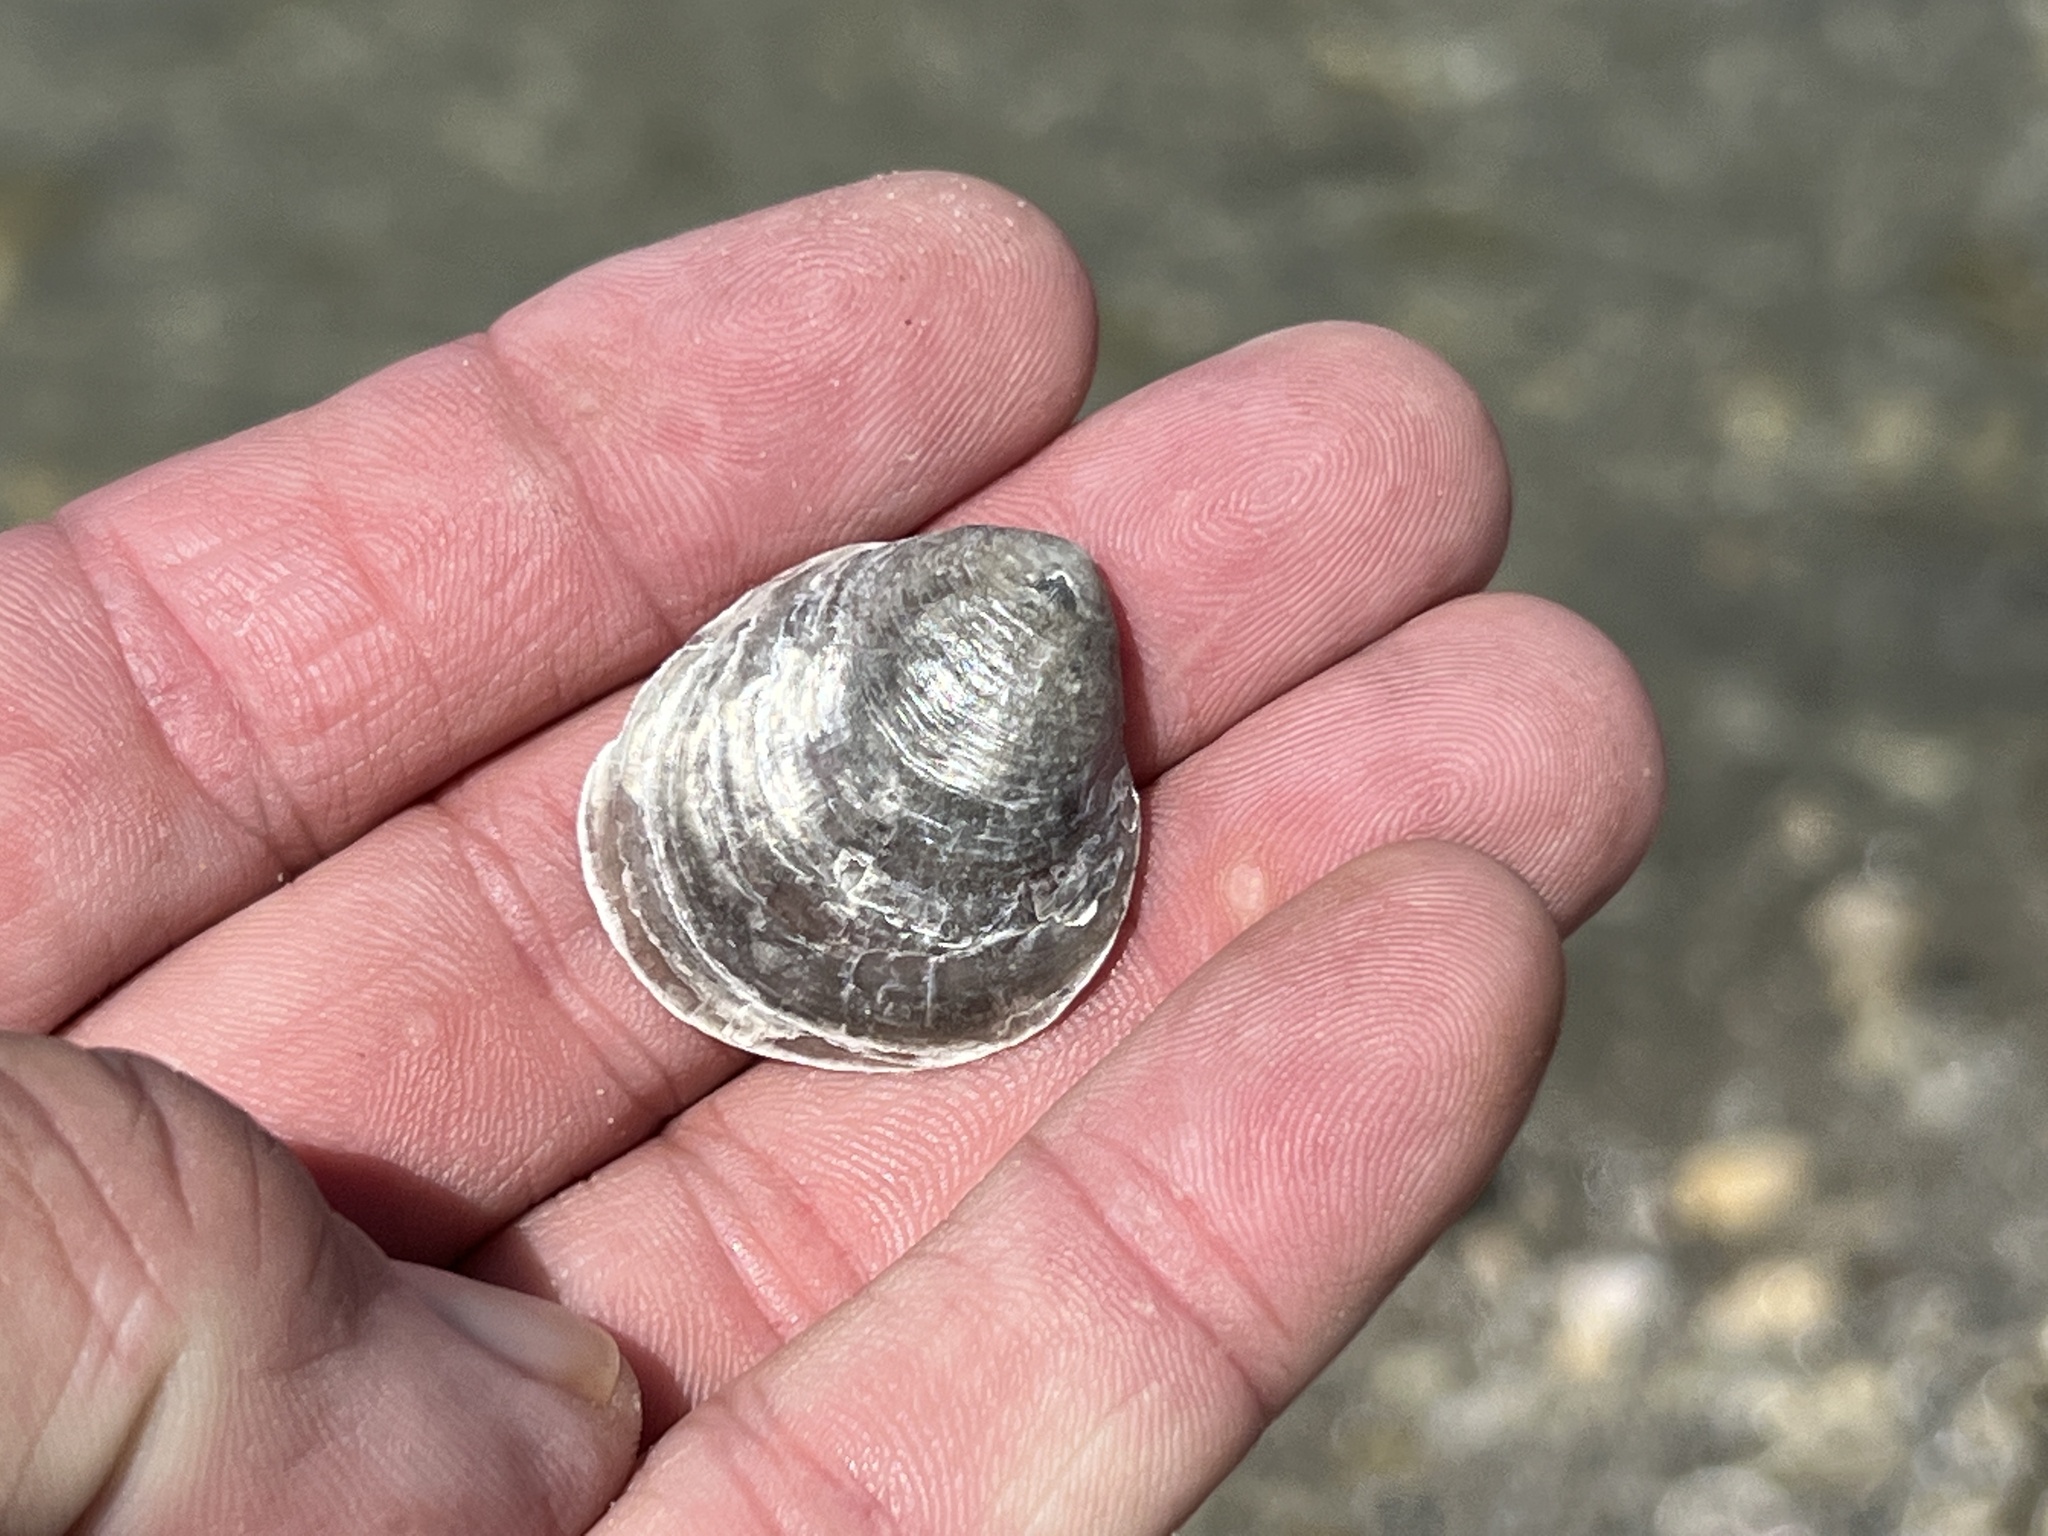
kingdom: Animalia
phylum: Mollusca
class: Bivalvia
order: Pectinida
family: Anomiidae
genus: Anomia
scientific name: Anomia simplex
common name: Common jingle shell
